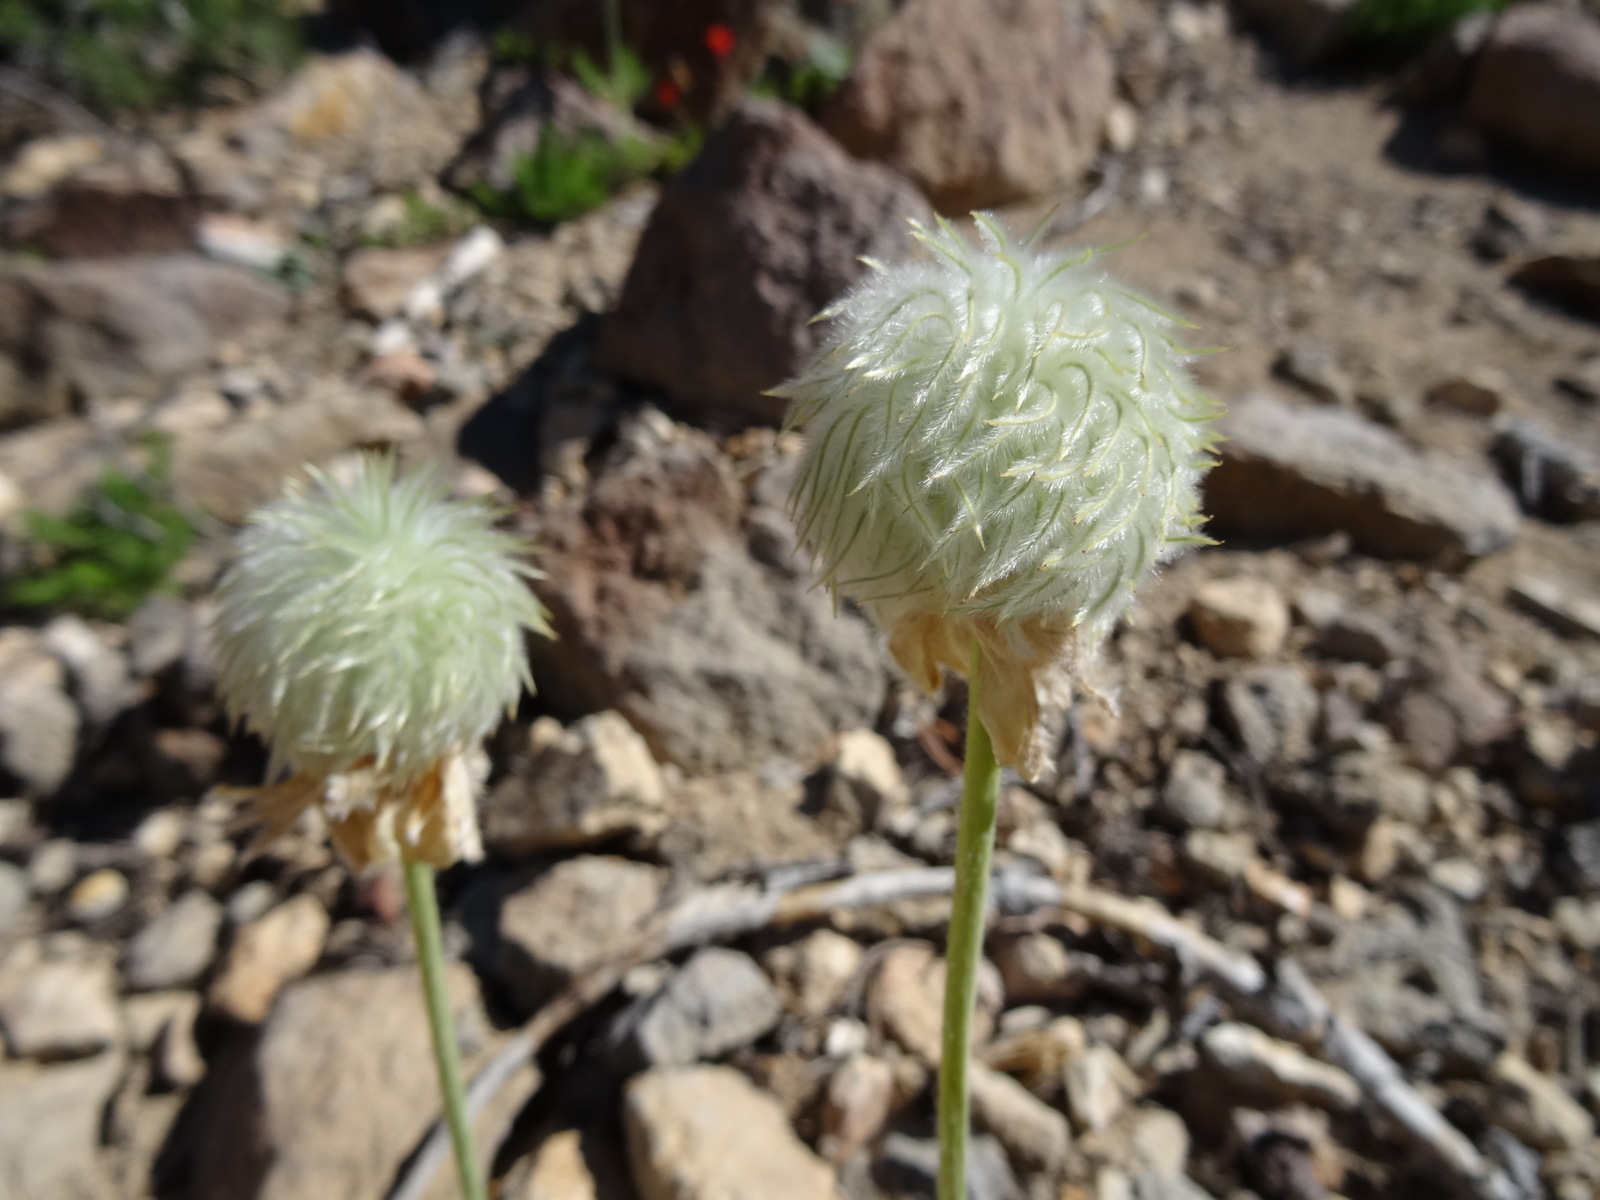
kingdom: Plantae
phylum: Tracheophyta
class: Magnoliopsida
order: Ranunculales
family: Ranunculaceae
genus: Pulsatilla
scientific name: Pulsatilla occidentalis
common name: Mountain pasqueflower
